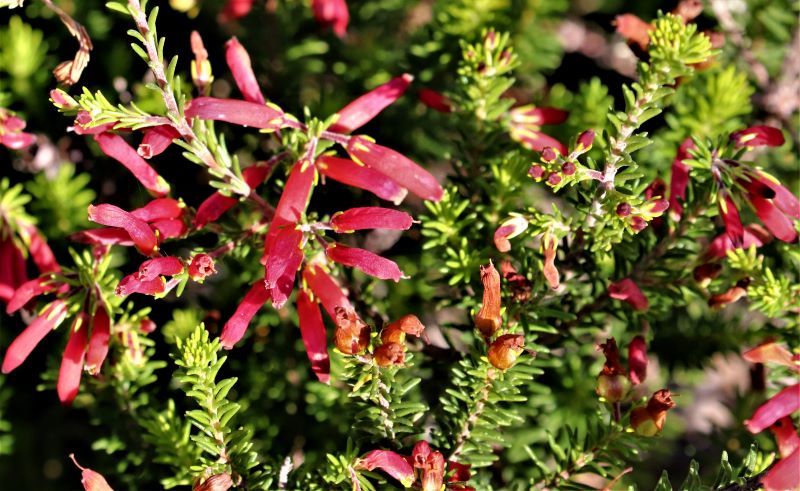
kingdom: Plantae
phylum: Tracheophyta
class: Magnoliopsida
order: Ericales
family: Ericaceae
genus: Erica
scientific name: Erica chloroloma
